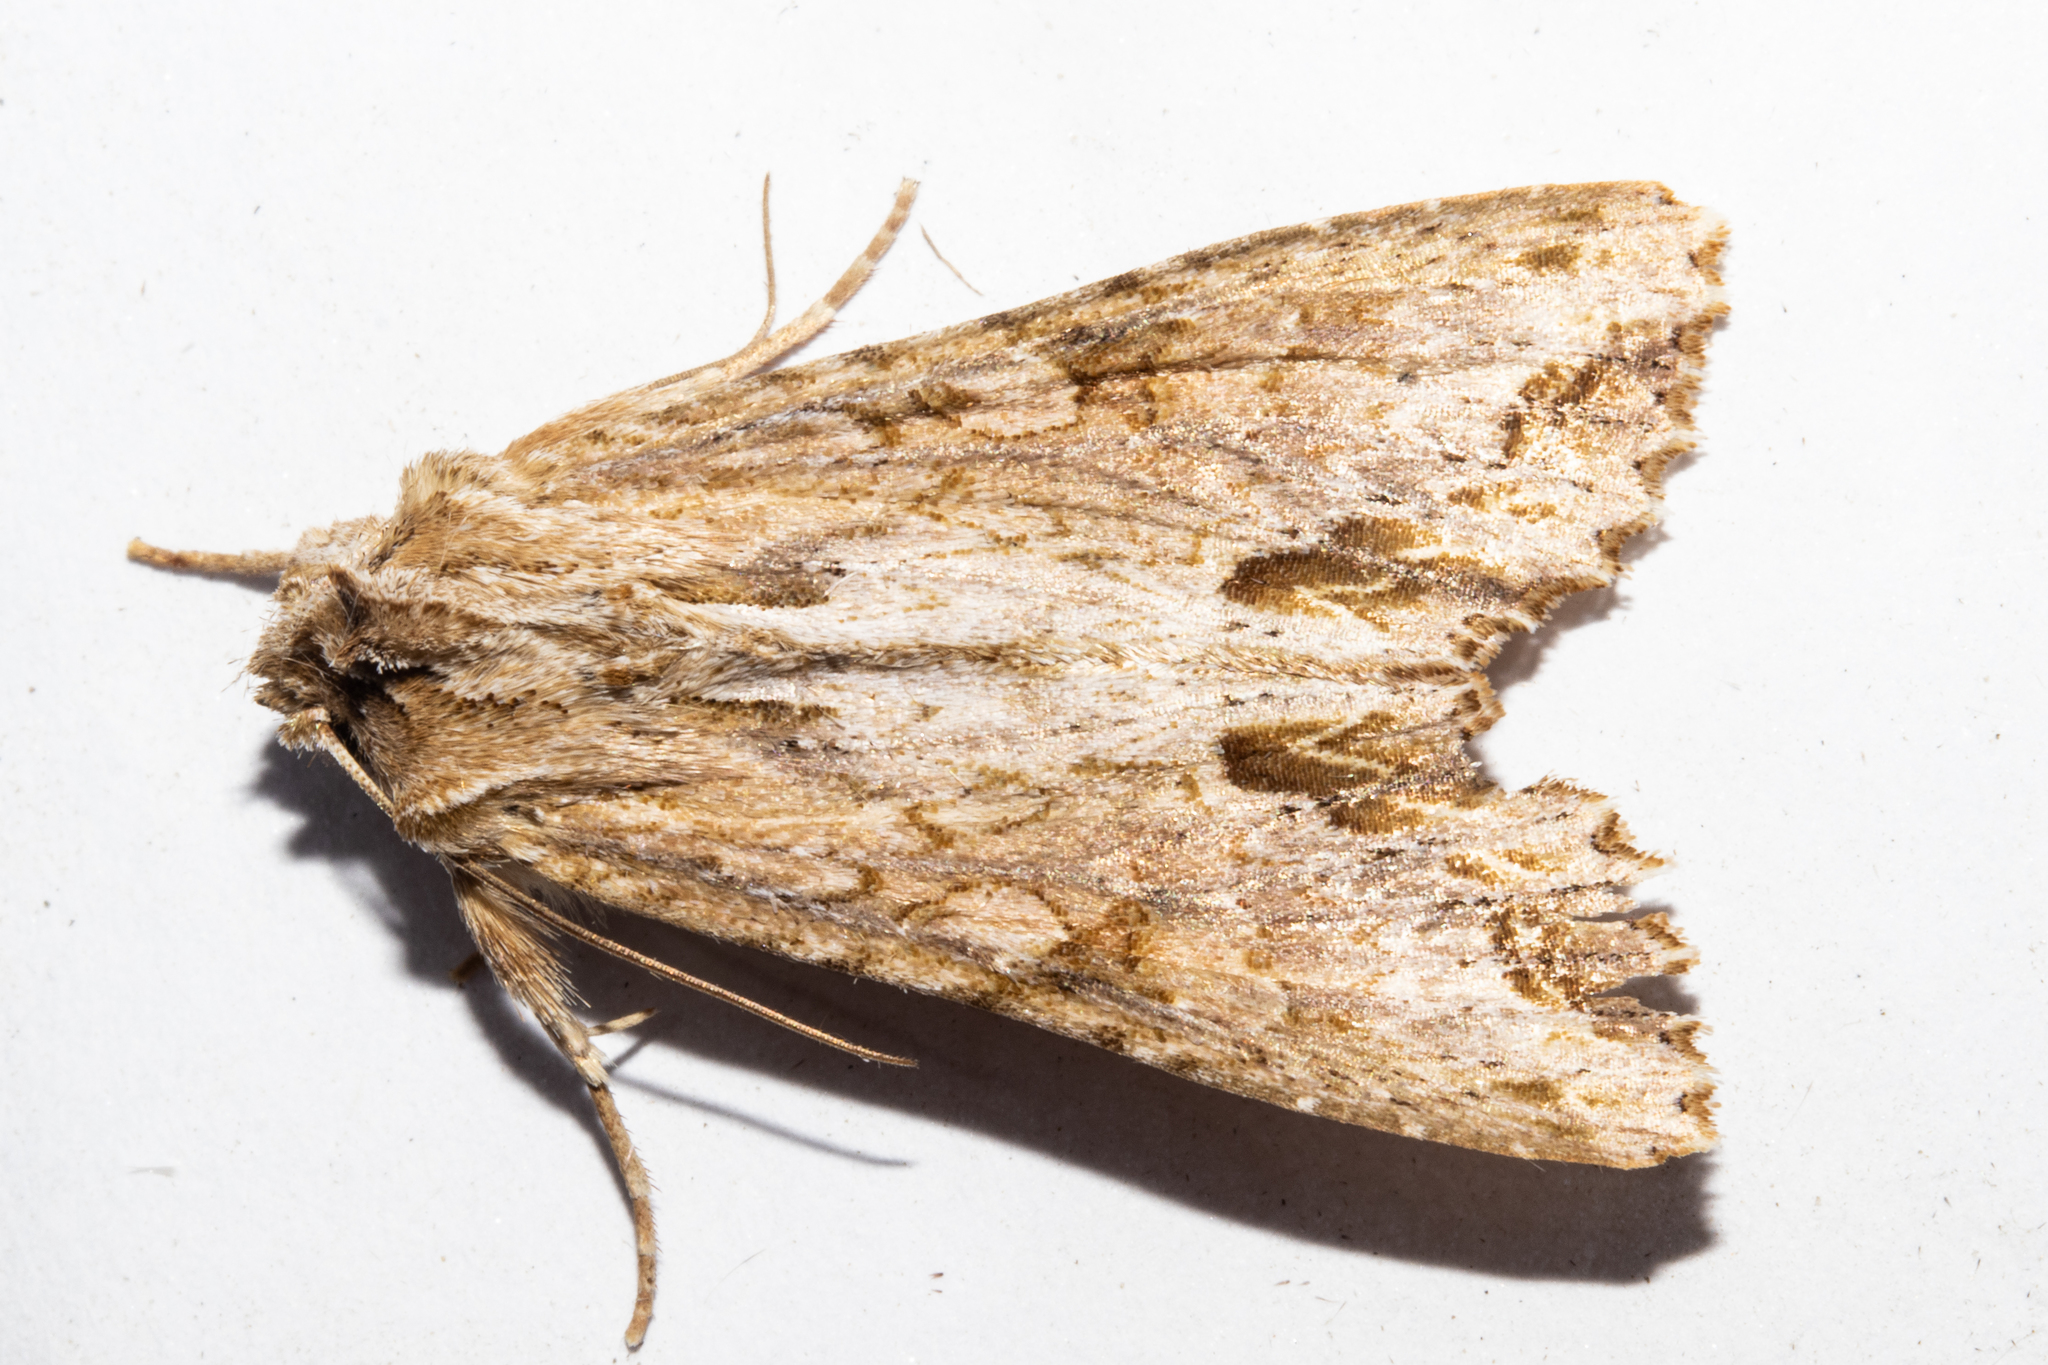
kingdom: Animalia
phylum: Arthropoda
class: Insecta
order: Lepidoptera
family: Noctuidae
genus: Ichneutica
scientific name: Ichneutica mollis
